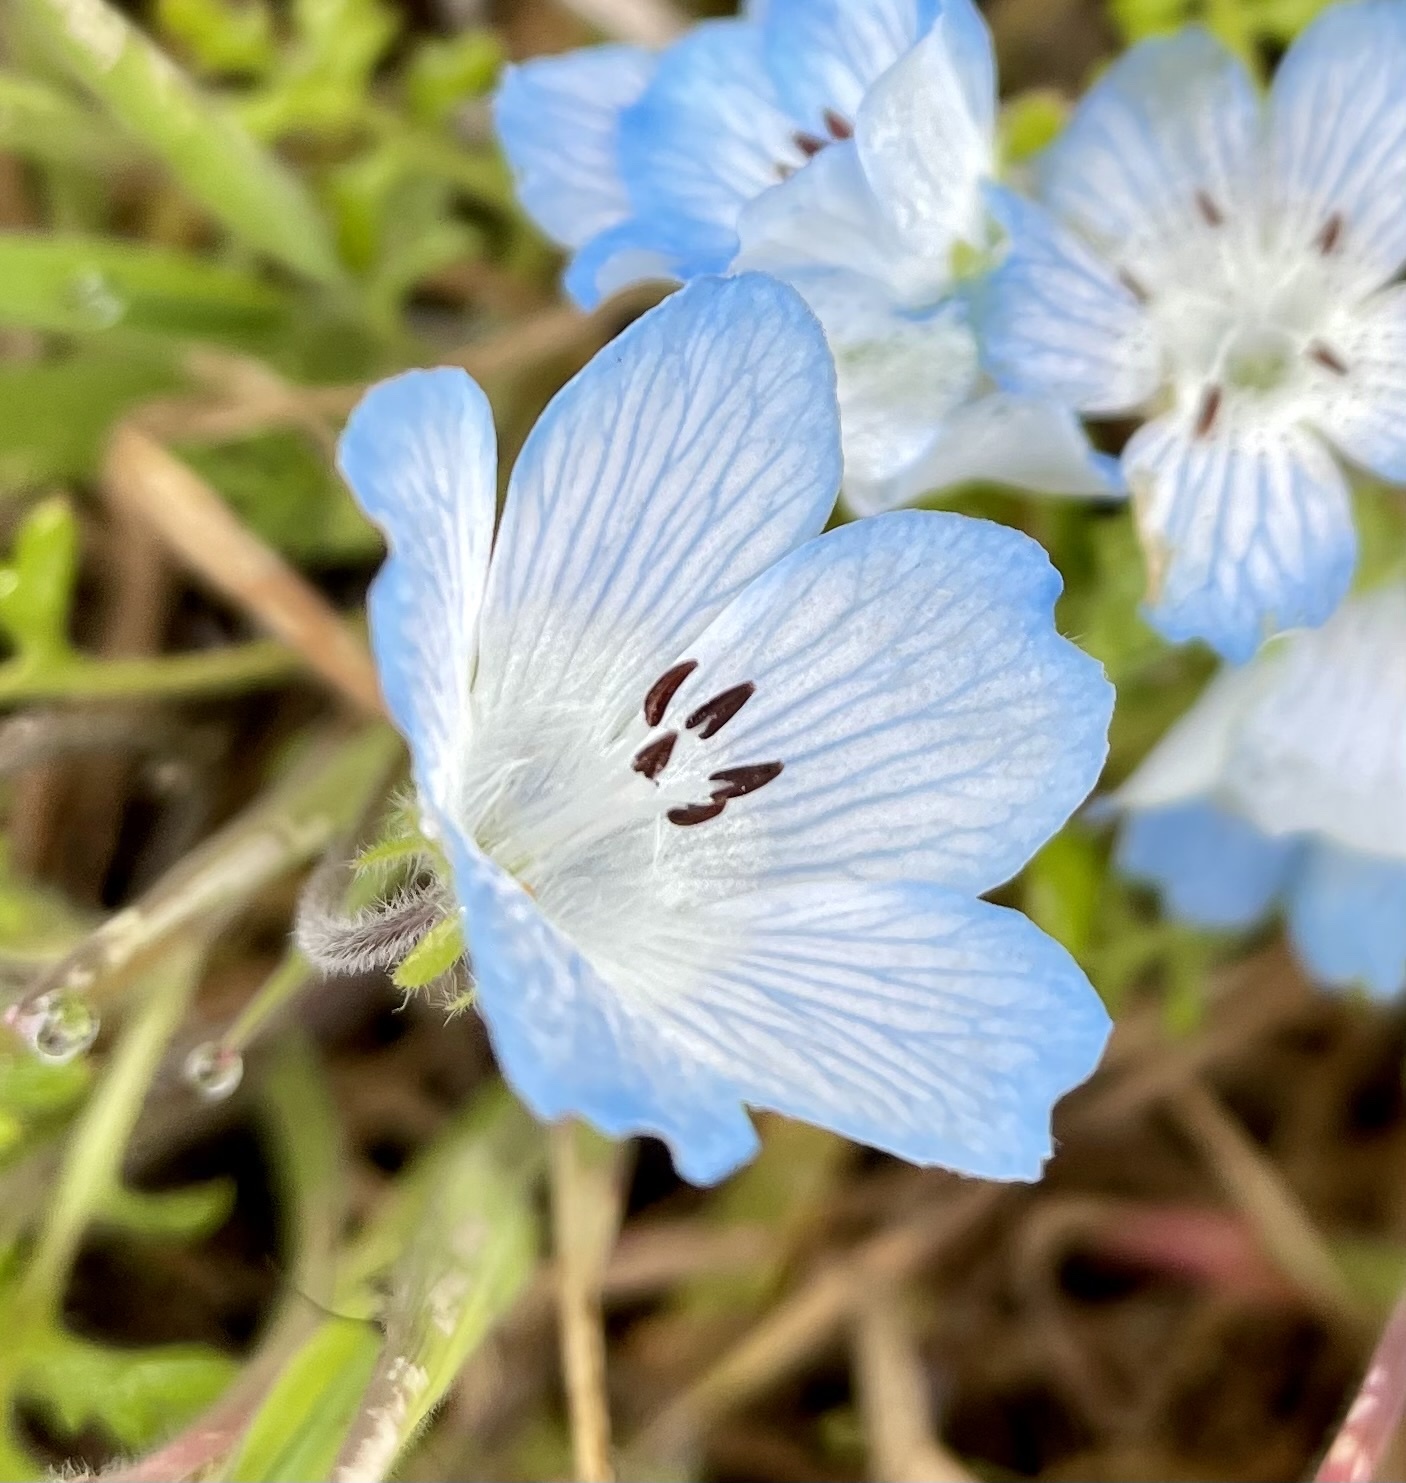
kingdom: Plantae
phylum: Tracheophyta
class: Magnoliopsida
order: Boraginales
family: Hydrophyllaceae
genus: Nemophila
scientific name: Nemophila menziesii
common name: Baby's-blue-eyes
